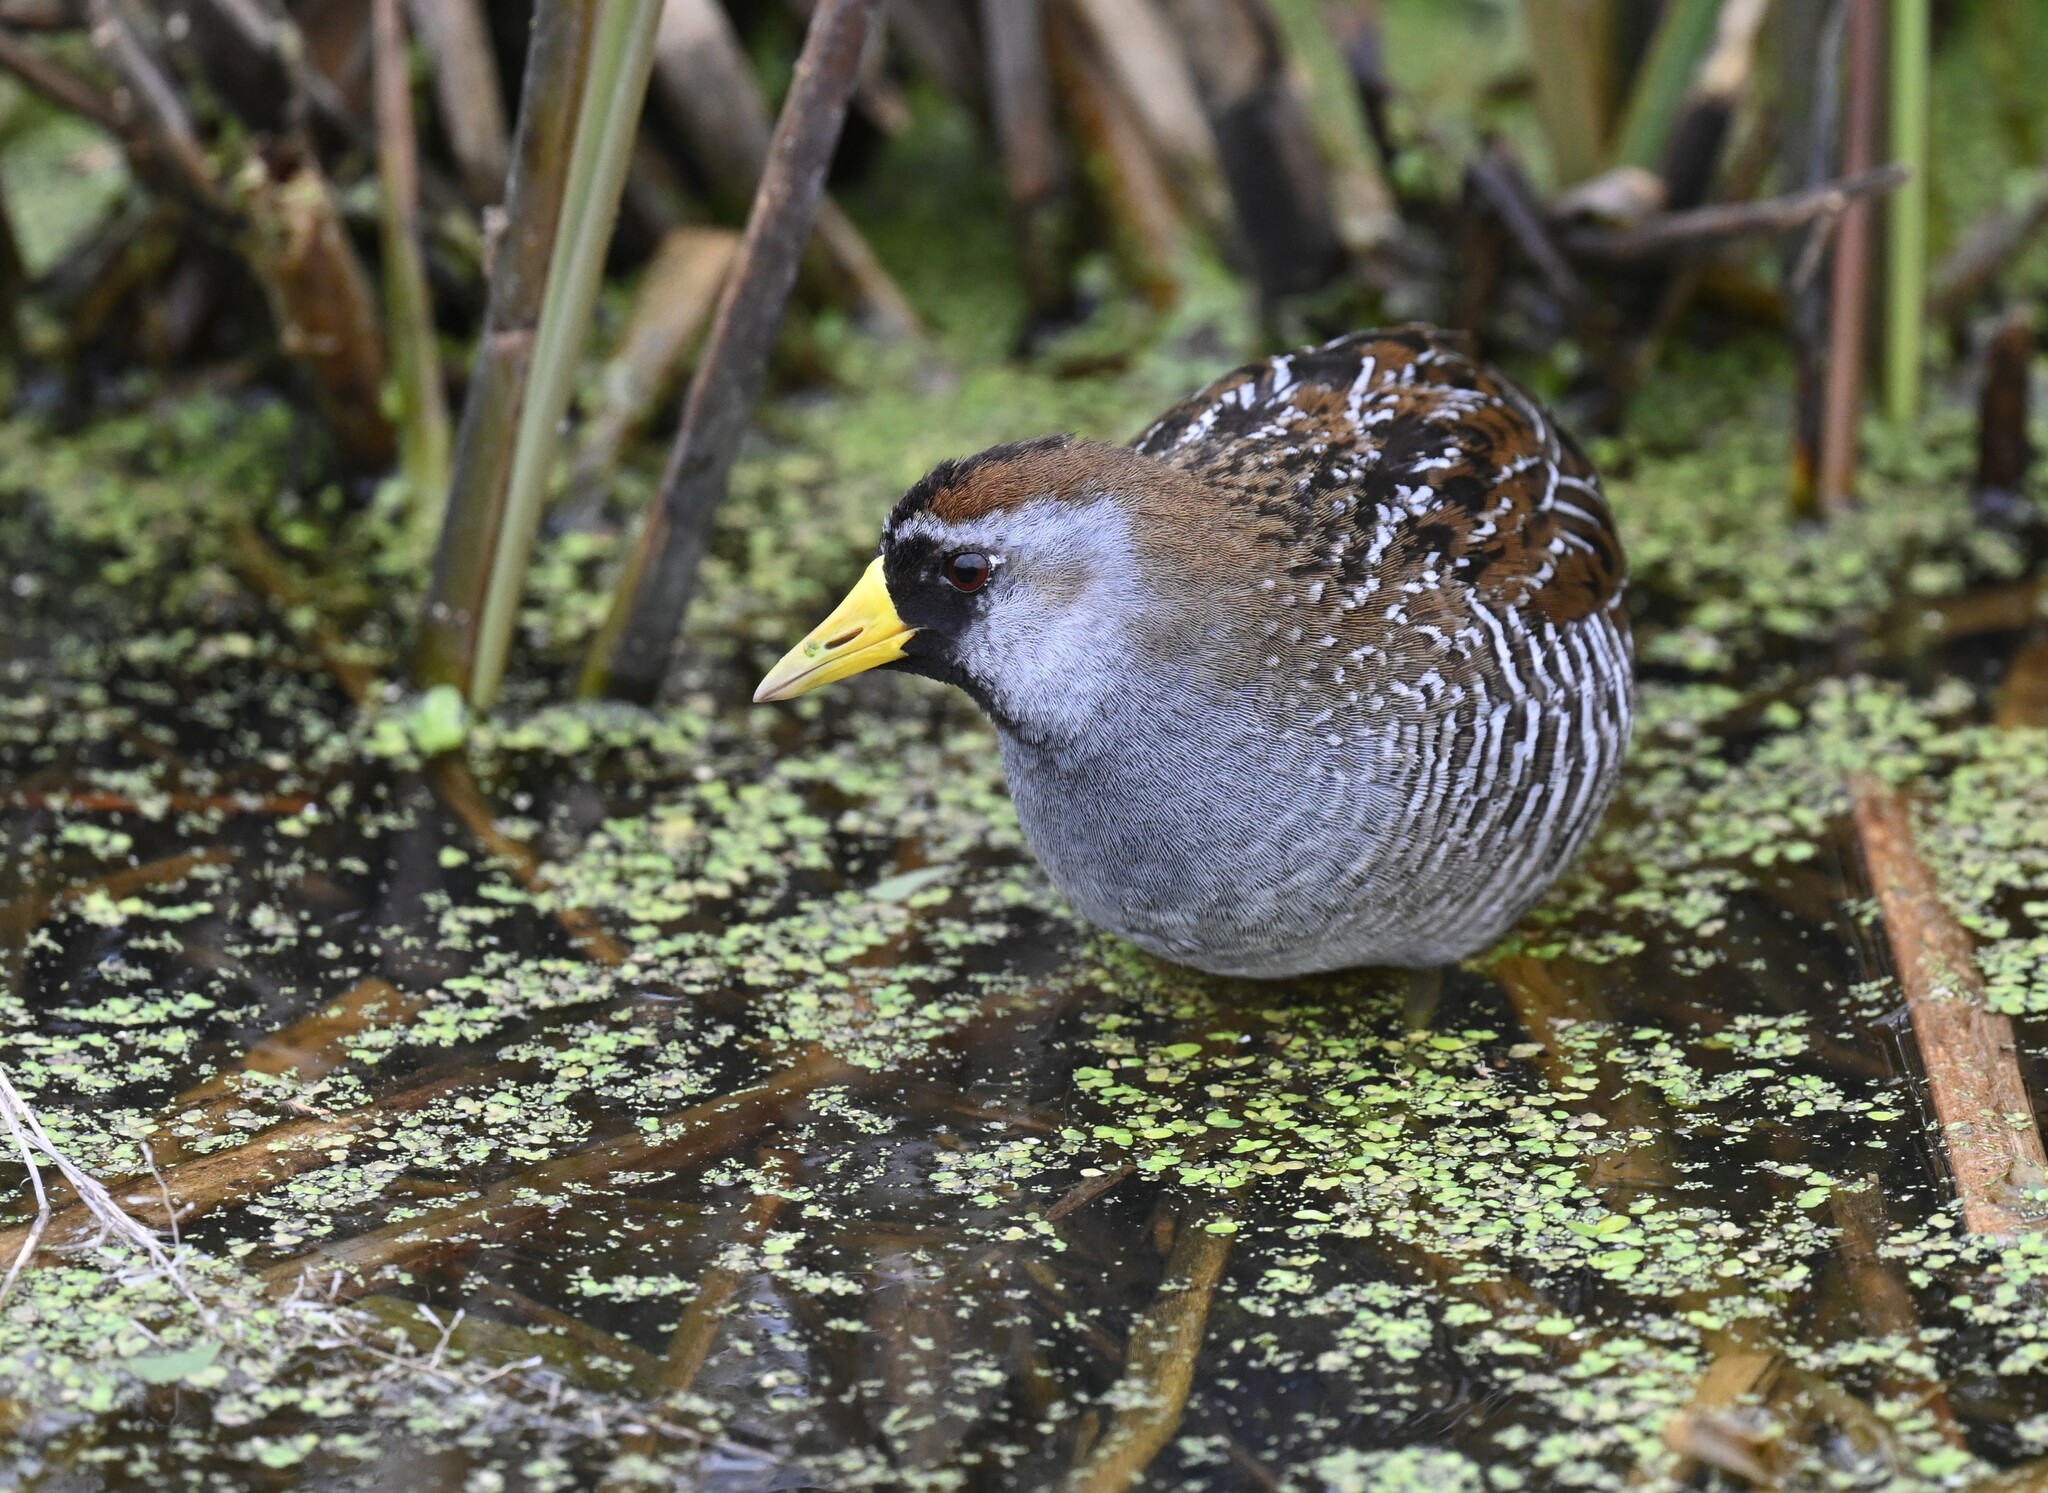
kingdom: Animalia
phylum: Chordata
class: Aves
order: Gruiformes
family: Rallidae
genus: Porzana
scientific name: Porzana carolina
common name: Sora
